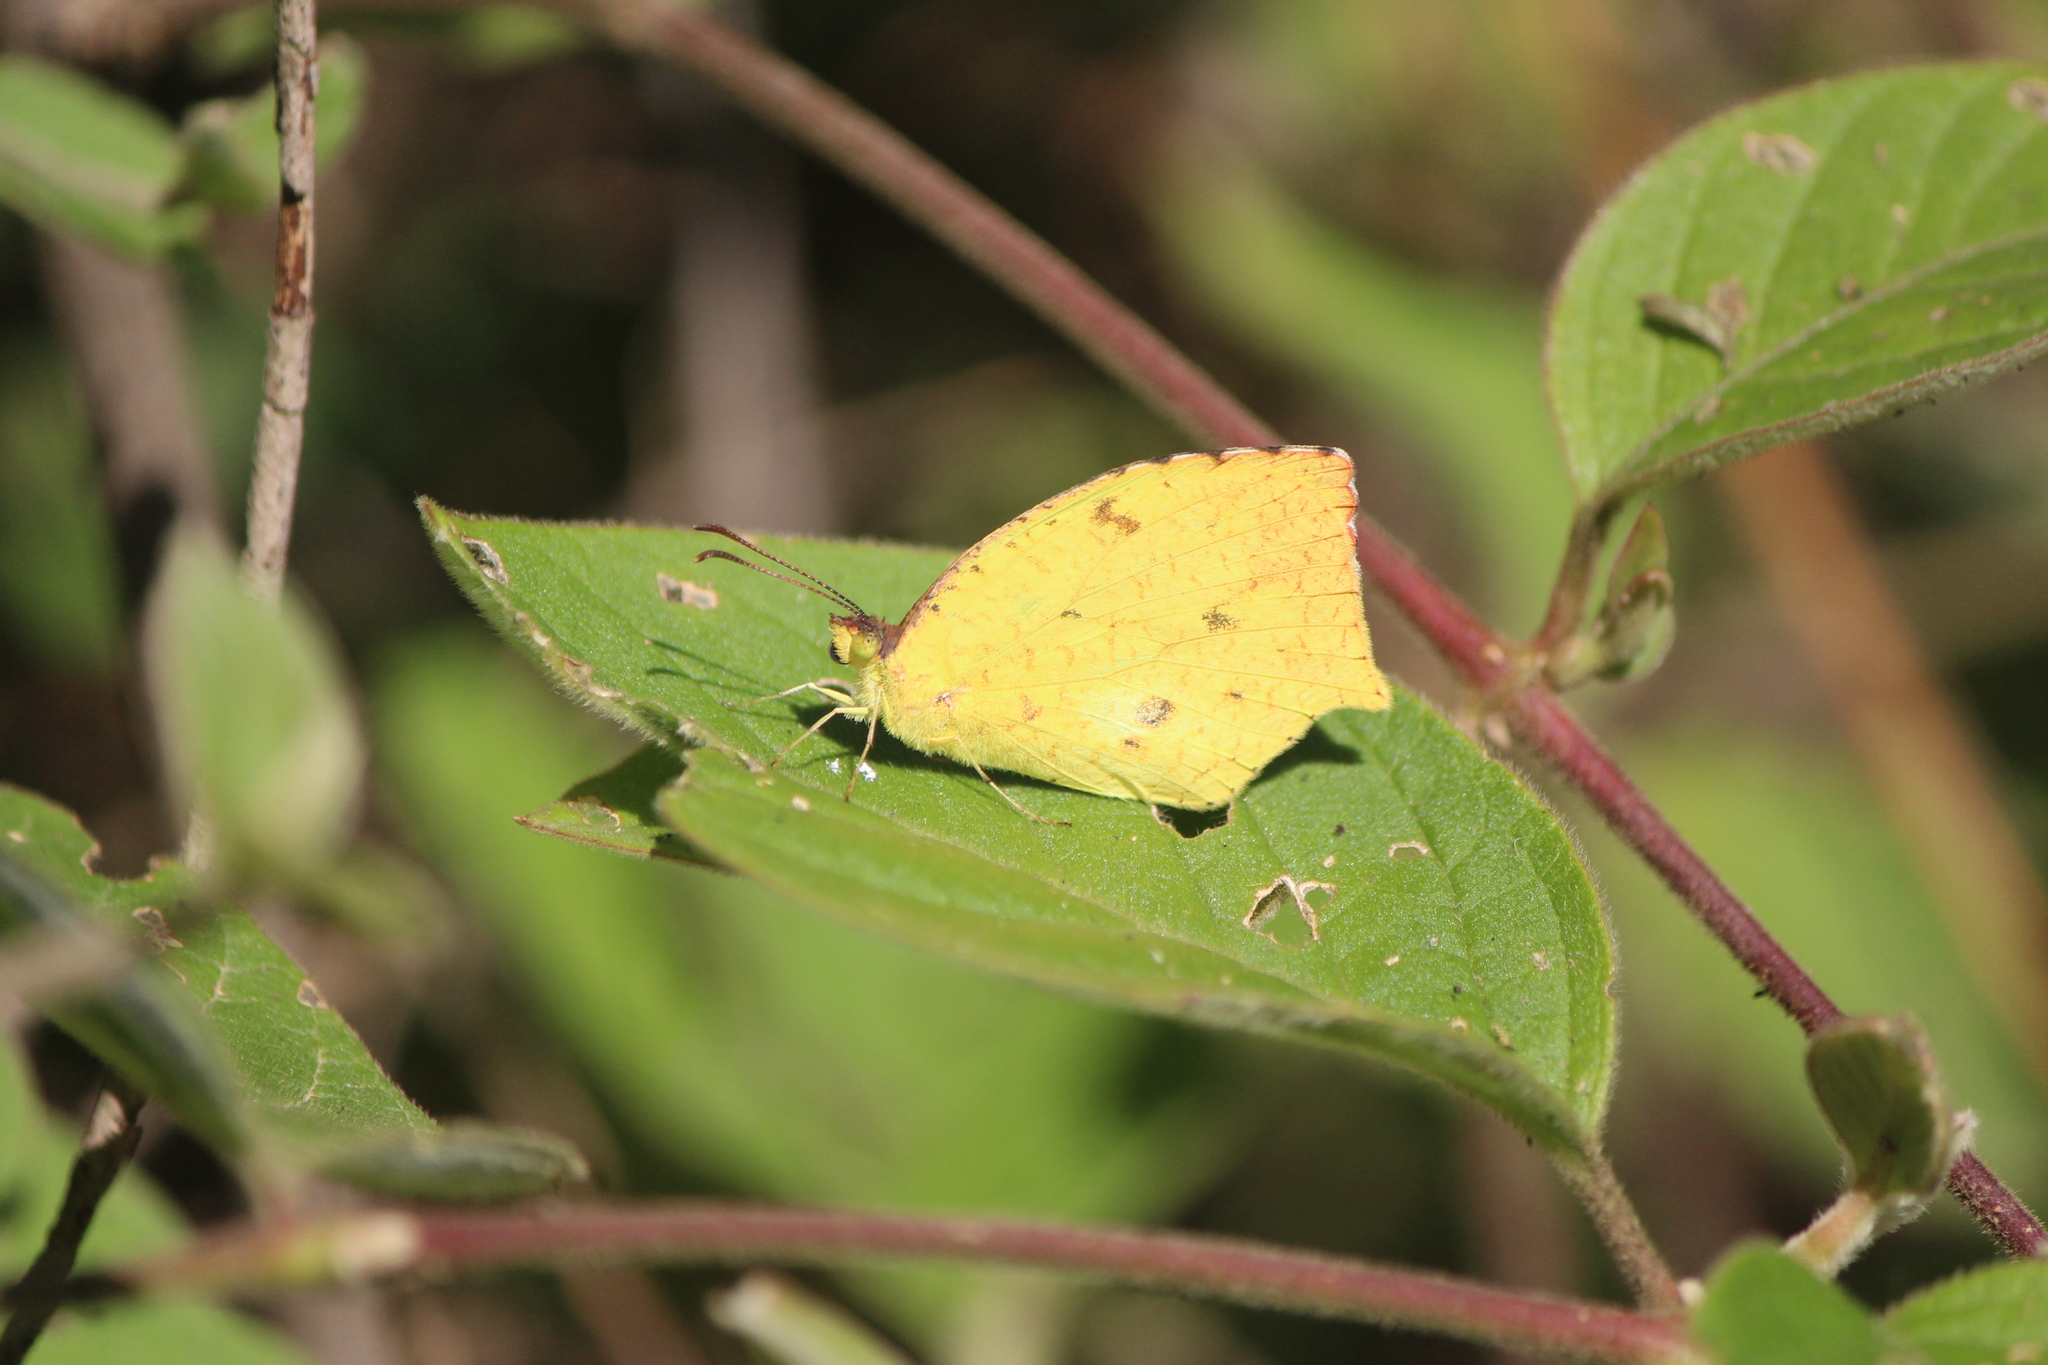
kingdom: Animalia
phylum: Arthropoda
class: Insecta
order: Lepidoptera
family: Pieridae
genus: Abaeis
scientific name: Abaeis salome
